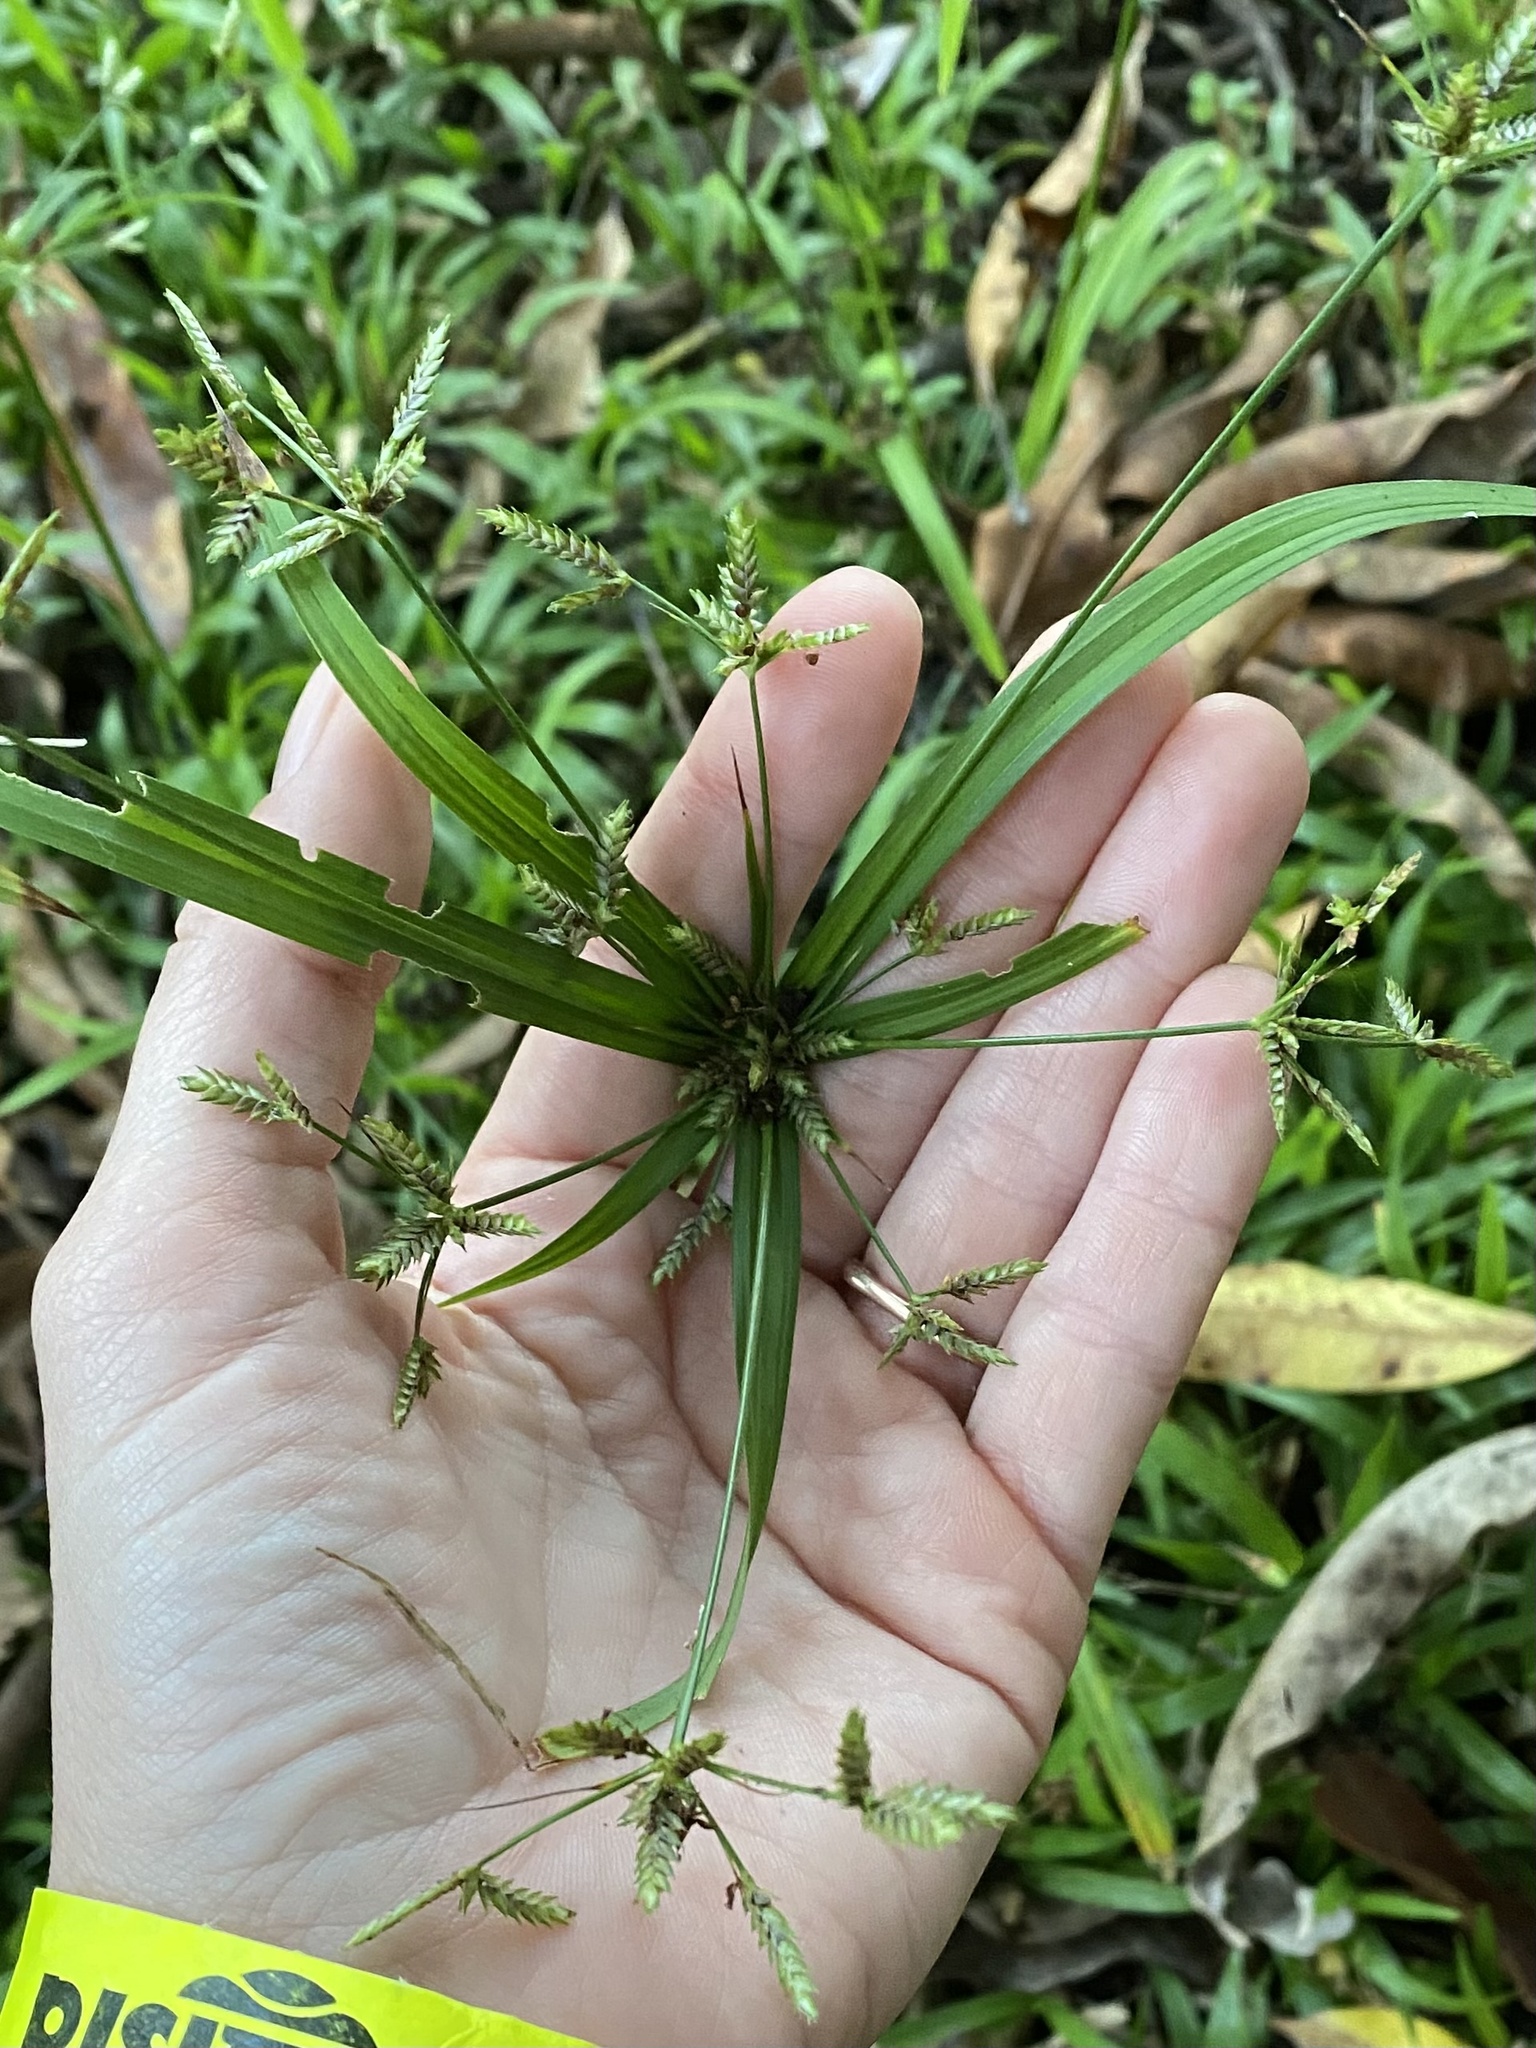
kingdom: Plantae
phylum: Tracheophyta
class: Liliopsida
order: Poales
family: Cyperaceae
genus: Cyperus
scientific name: Cyperus albostriatus
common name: Dwarf umbrella-grass
